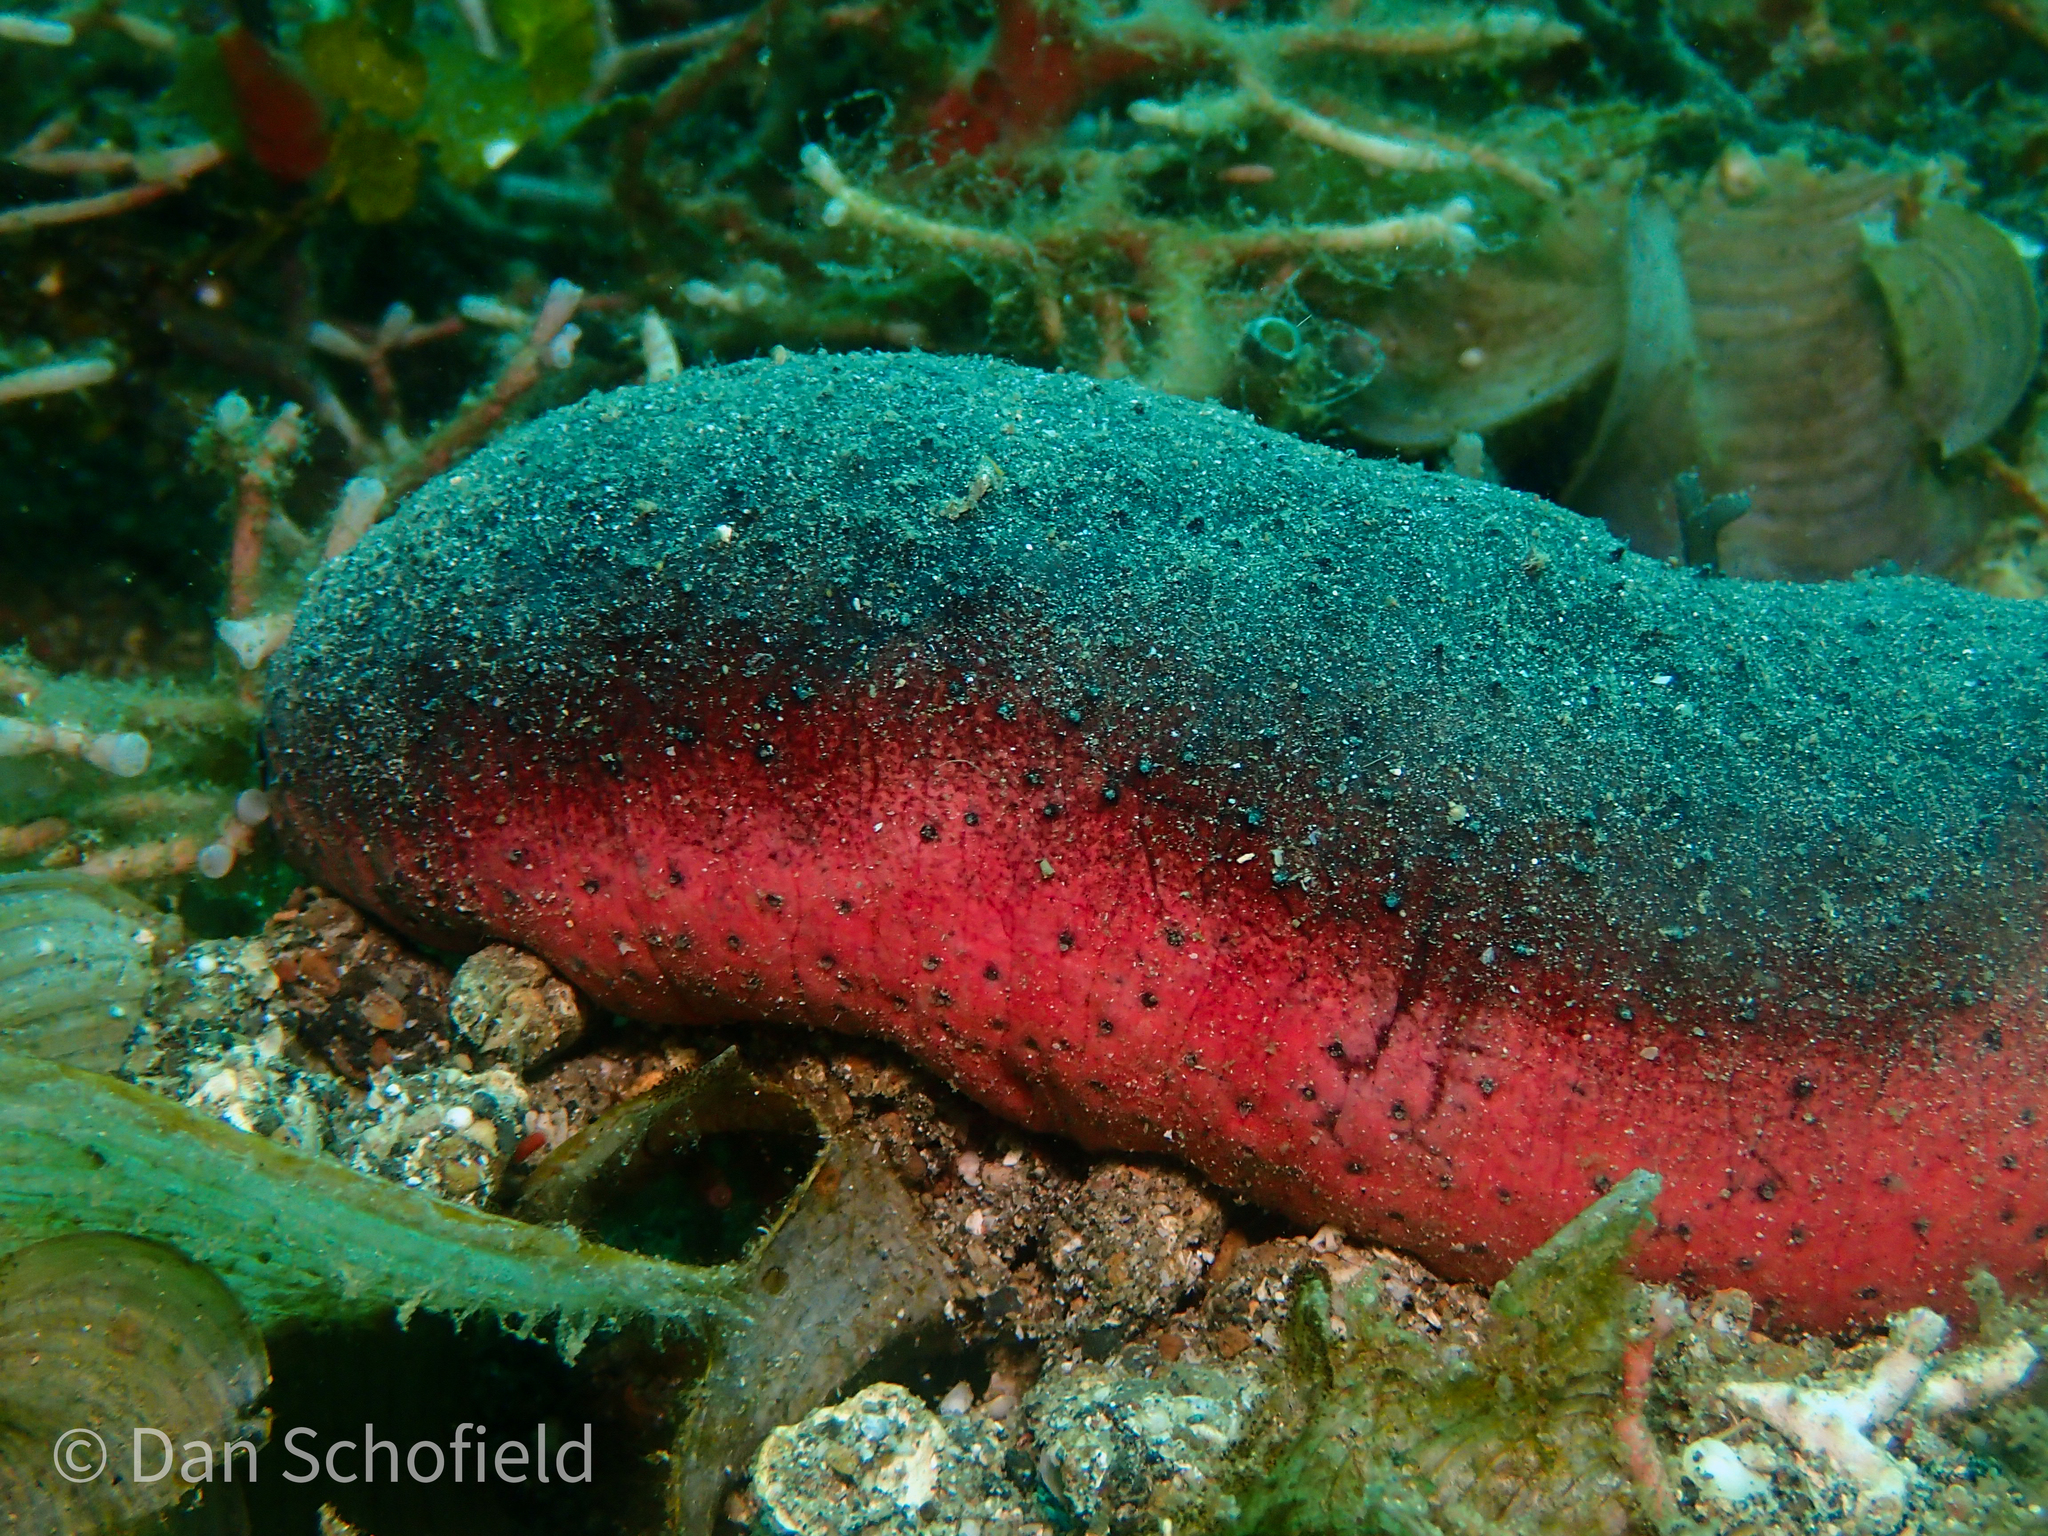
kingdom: Animalia
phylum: Echinodermata
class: Holothuroidea
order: Holothuriida
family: Holothuriidae
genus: Holothuria
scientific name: Holothuria edulis
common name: Pinkfish
